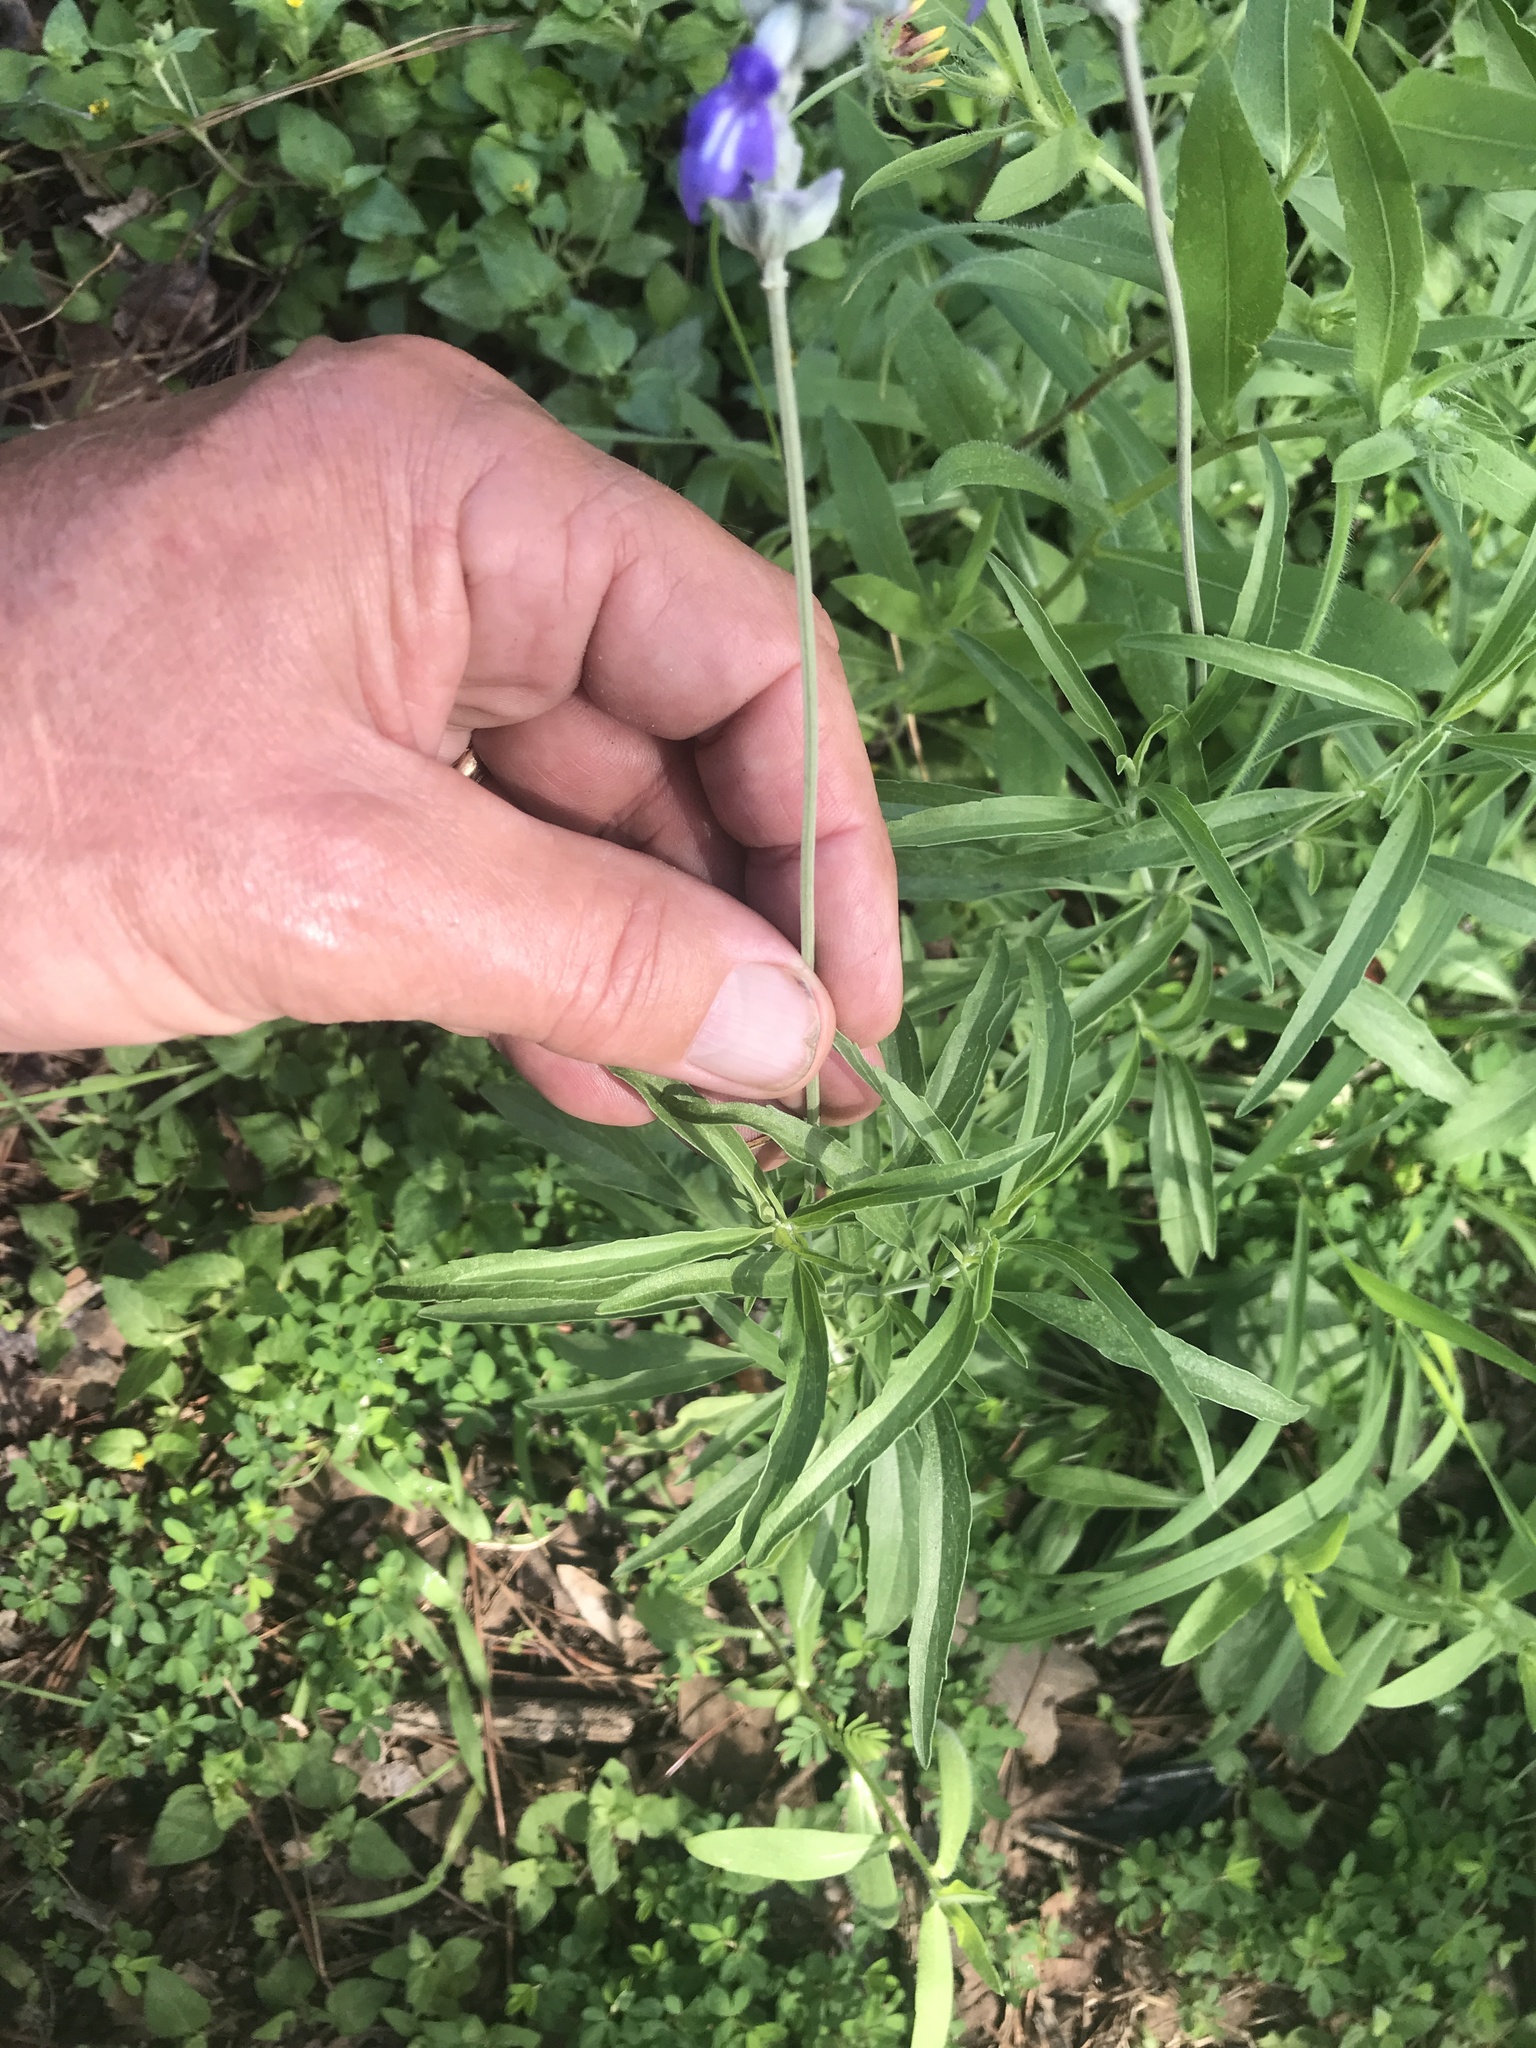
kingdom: Plantae
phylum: Tracheophyta
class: Magnoliopsida
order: Lamiales
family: Lamiaceae
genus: Salvia
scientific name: Salvia farinacea
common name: Mealy sage
